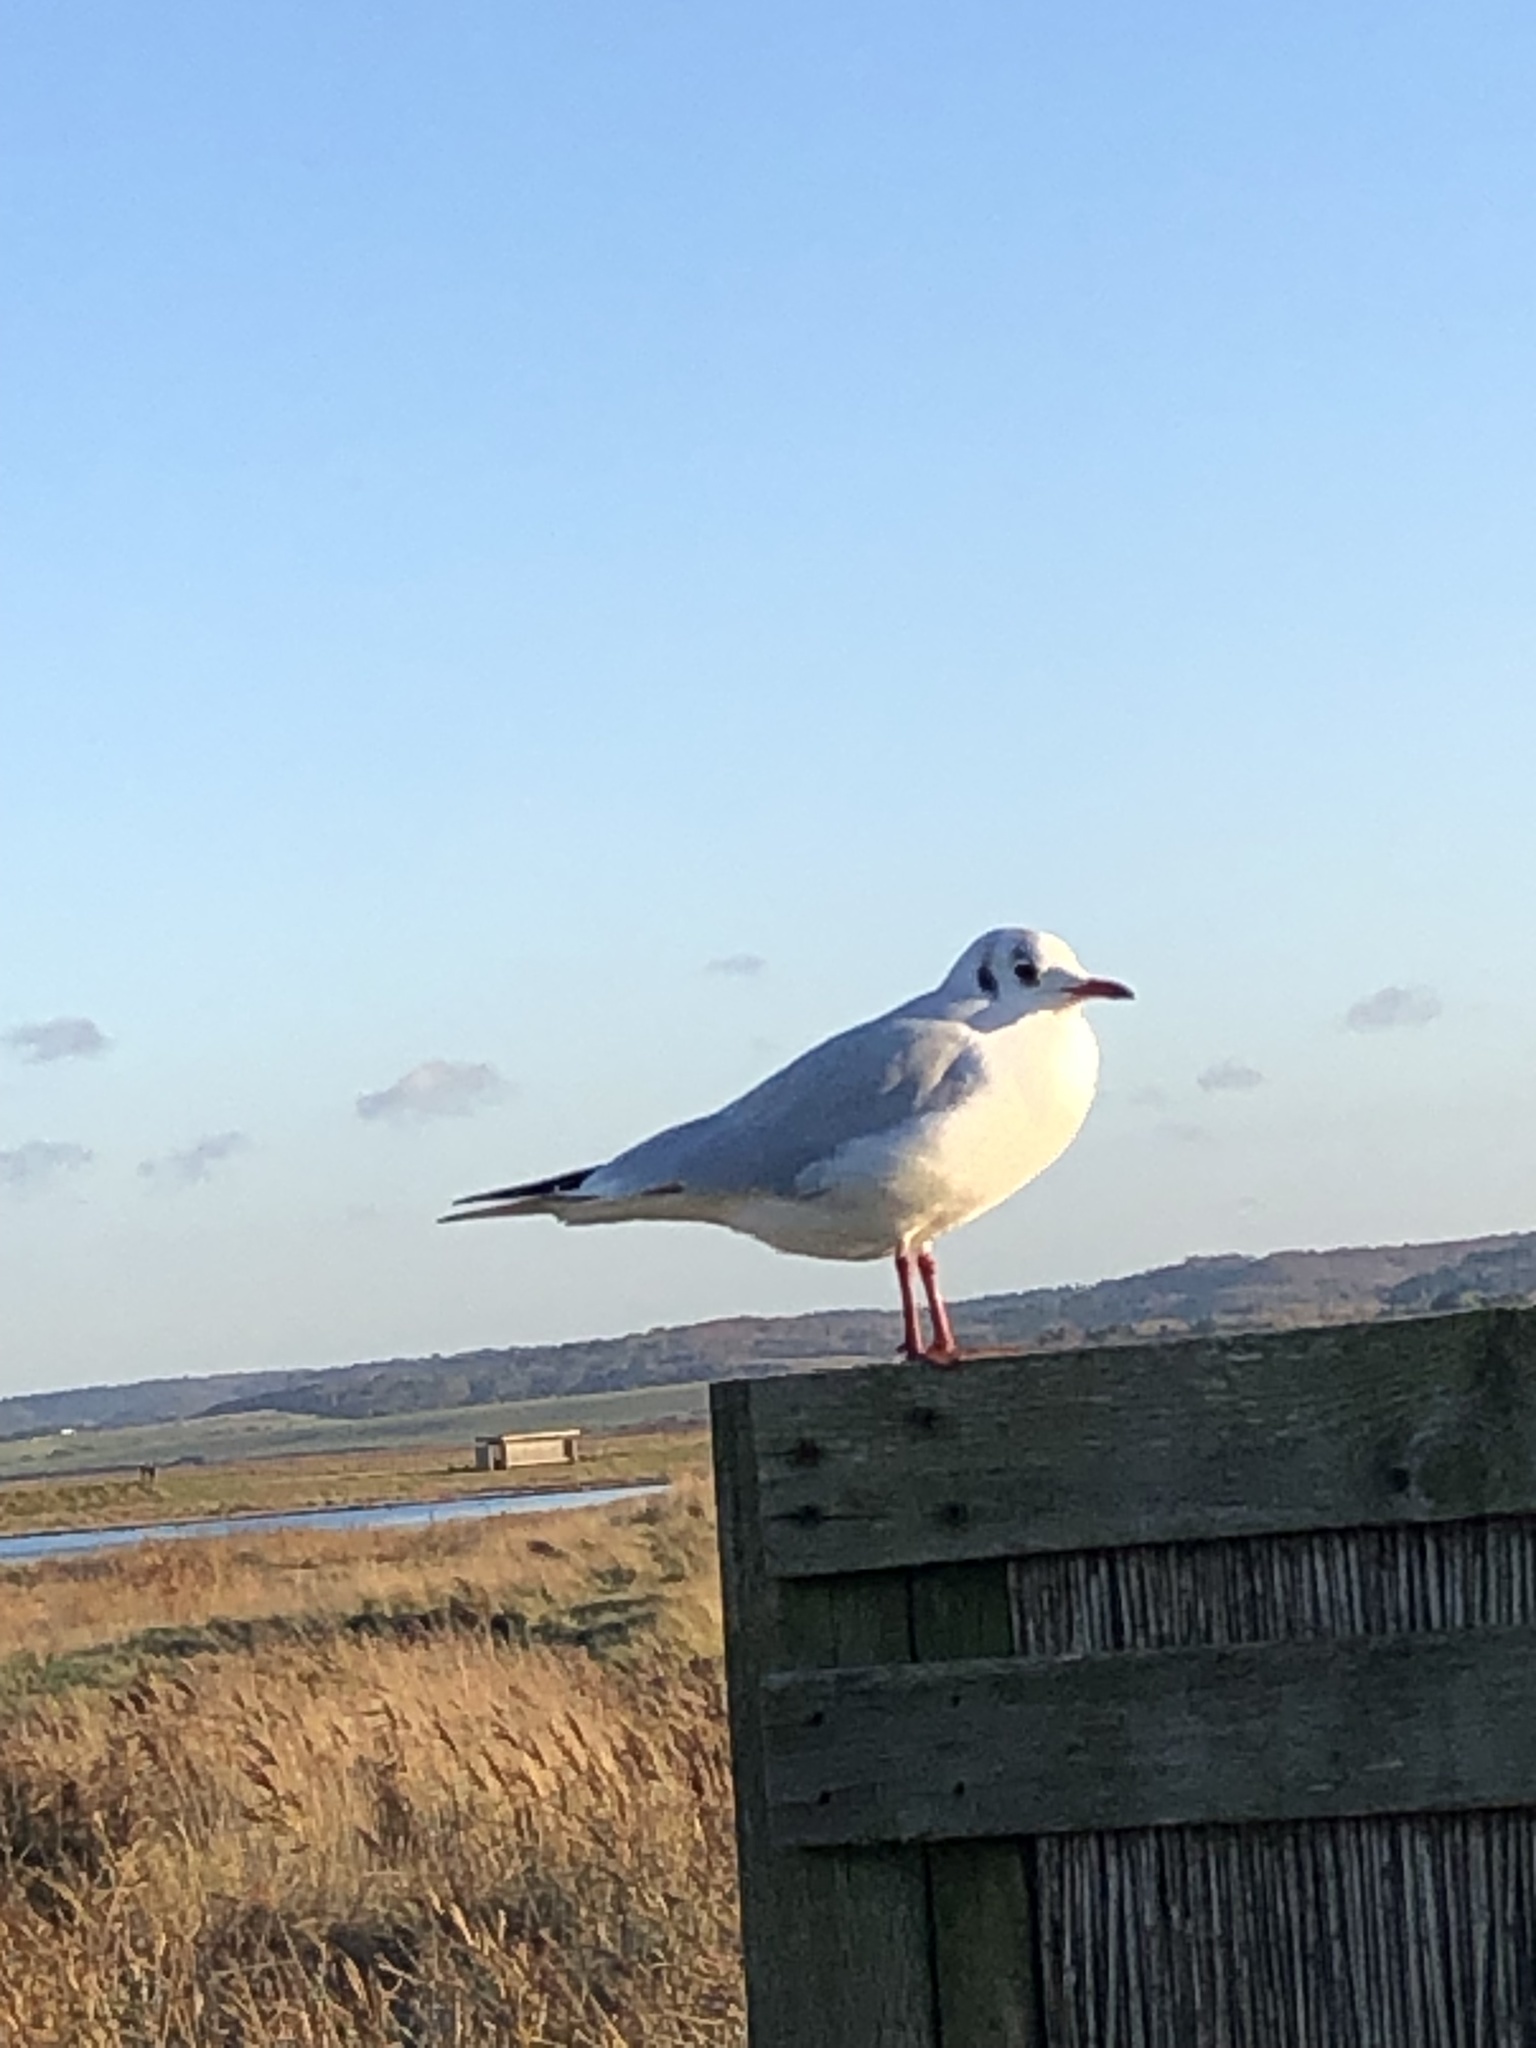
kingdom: Animalia
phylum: Chordata
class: Aves
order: Charadriiformes
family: Laridae
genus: Chroicocephalus
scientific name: Chroicocephalus ridibundus
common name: Black-headed gull
